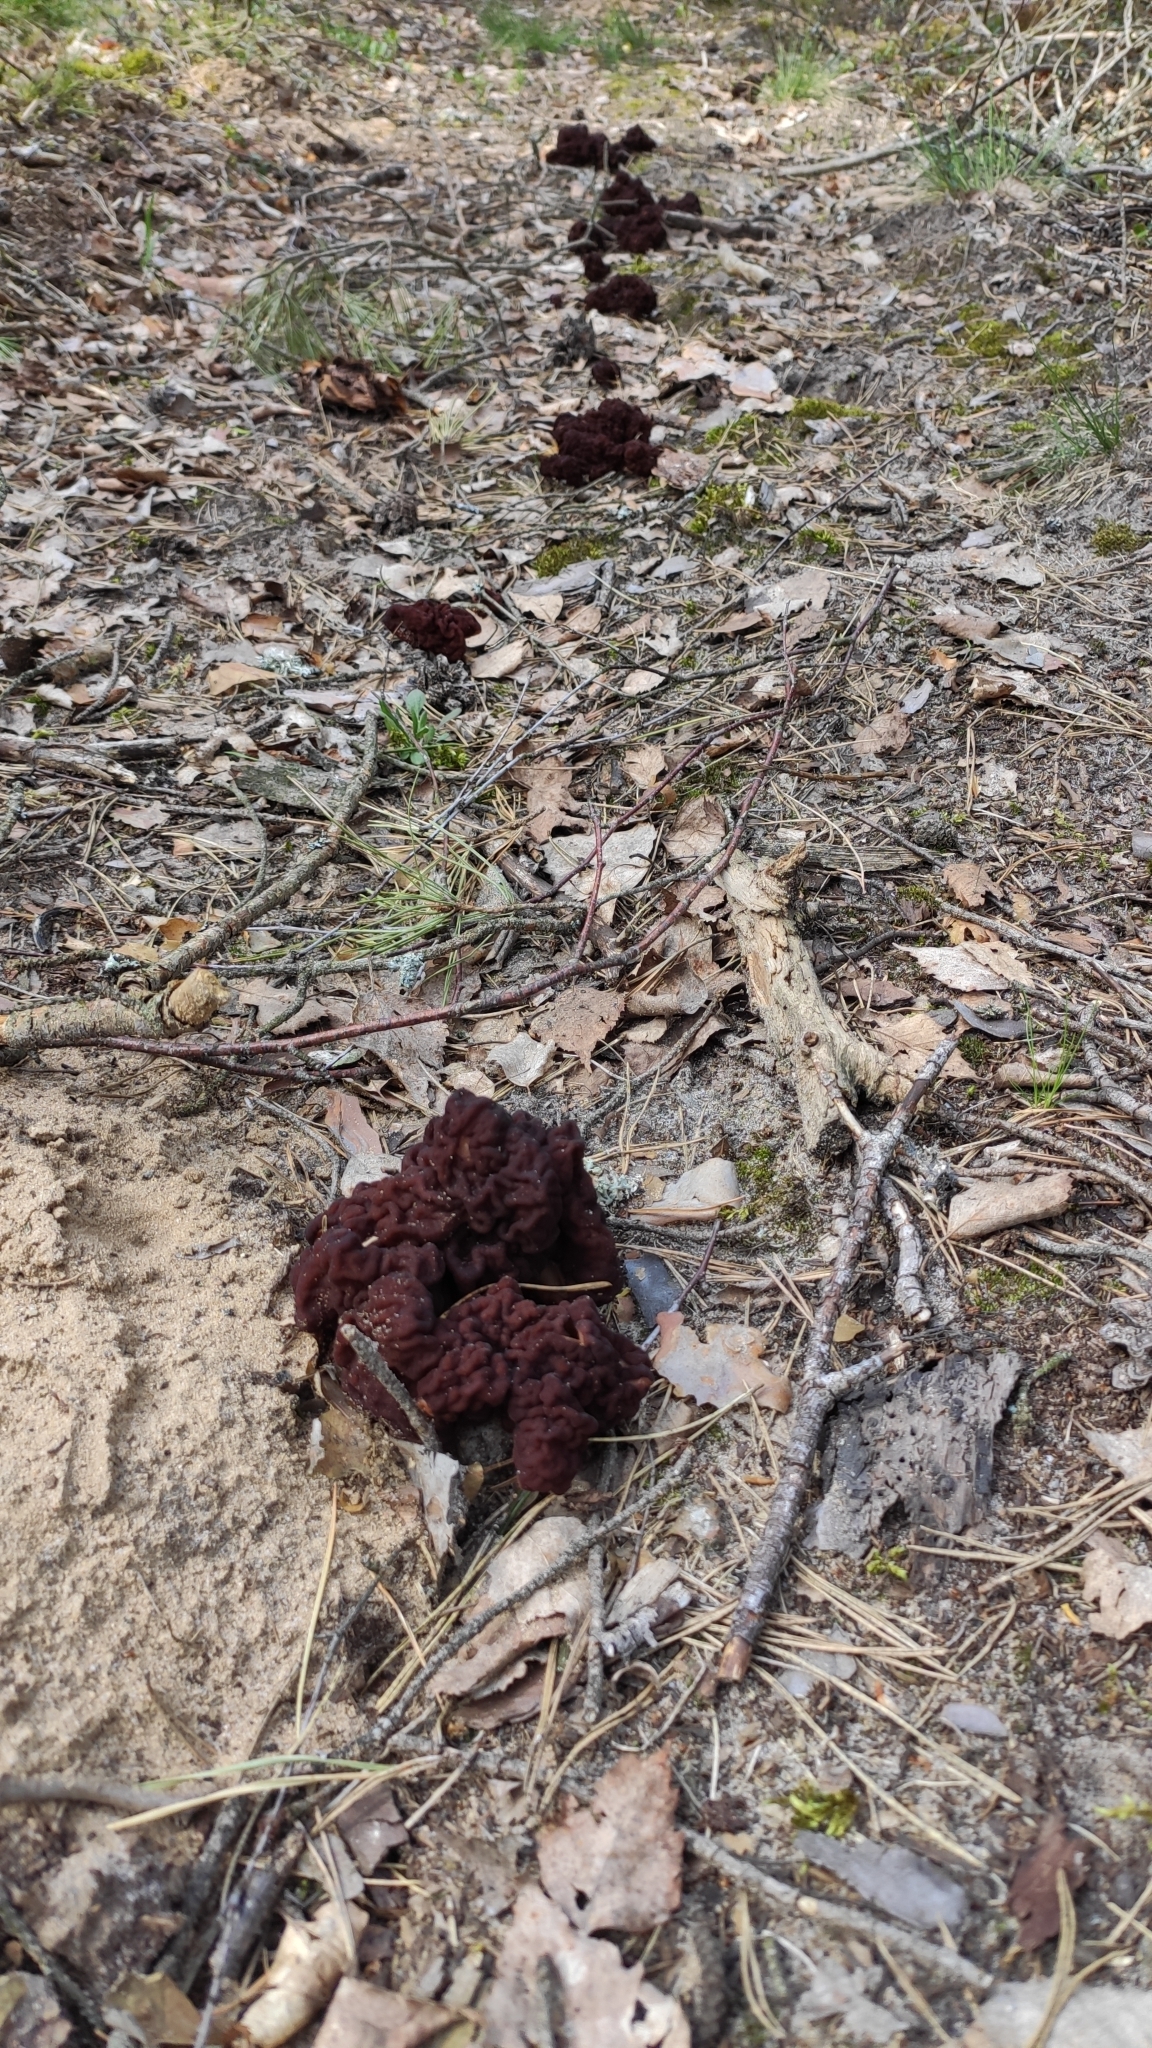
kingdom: Fungi
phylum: Ascomycota
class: Pezizomycetes
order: Pezizales
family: Discinaceae
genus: Gyromitra
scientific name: Gyromitra esculenta
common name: False morel
